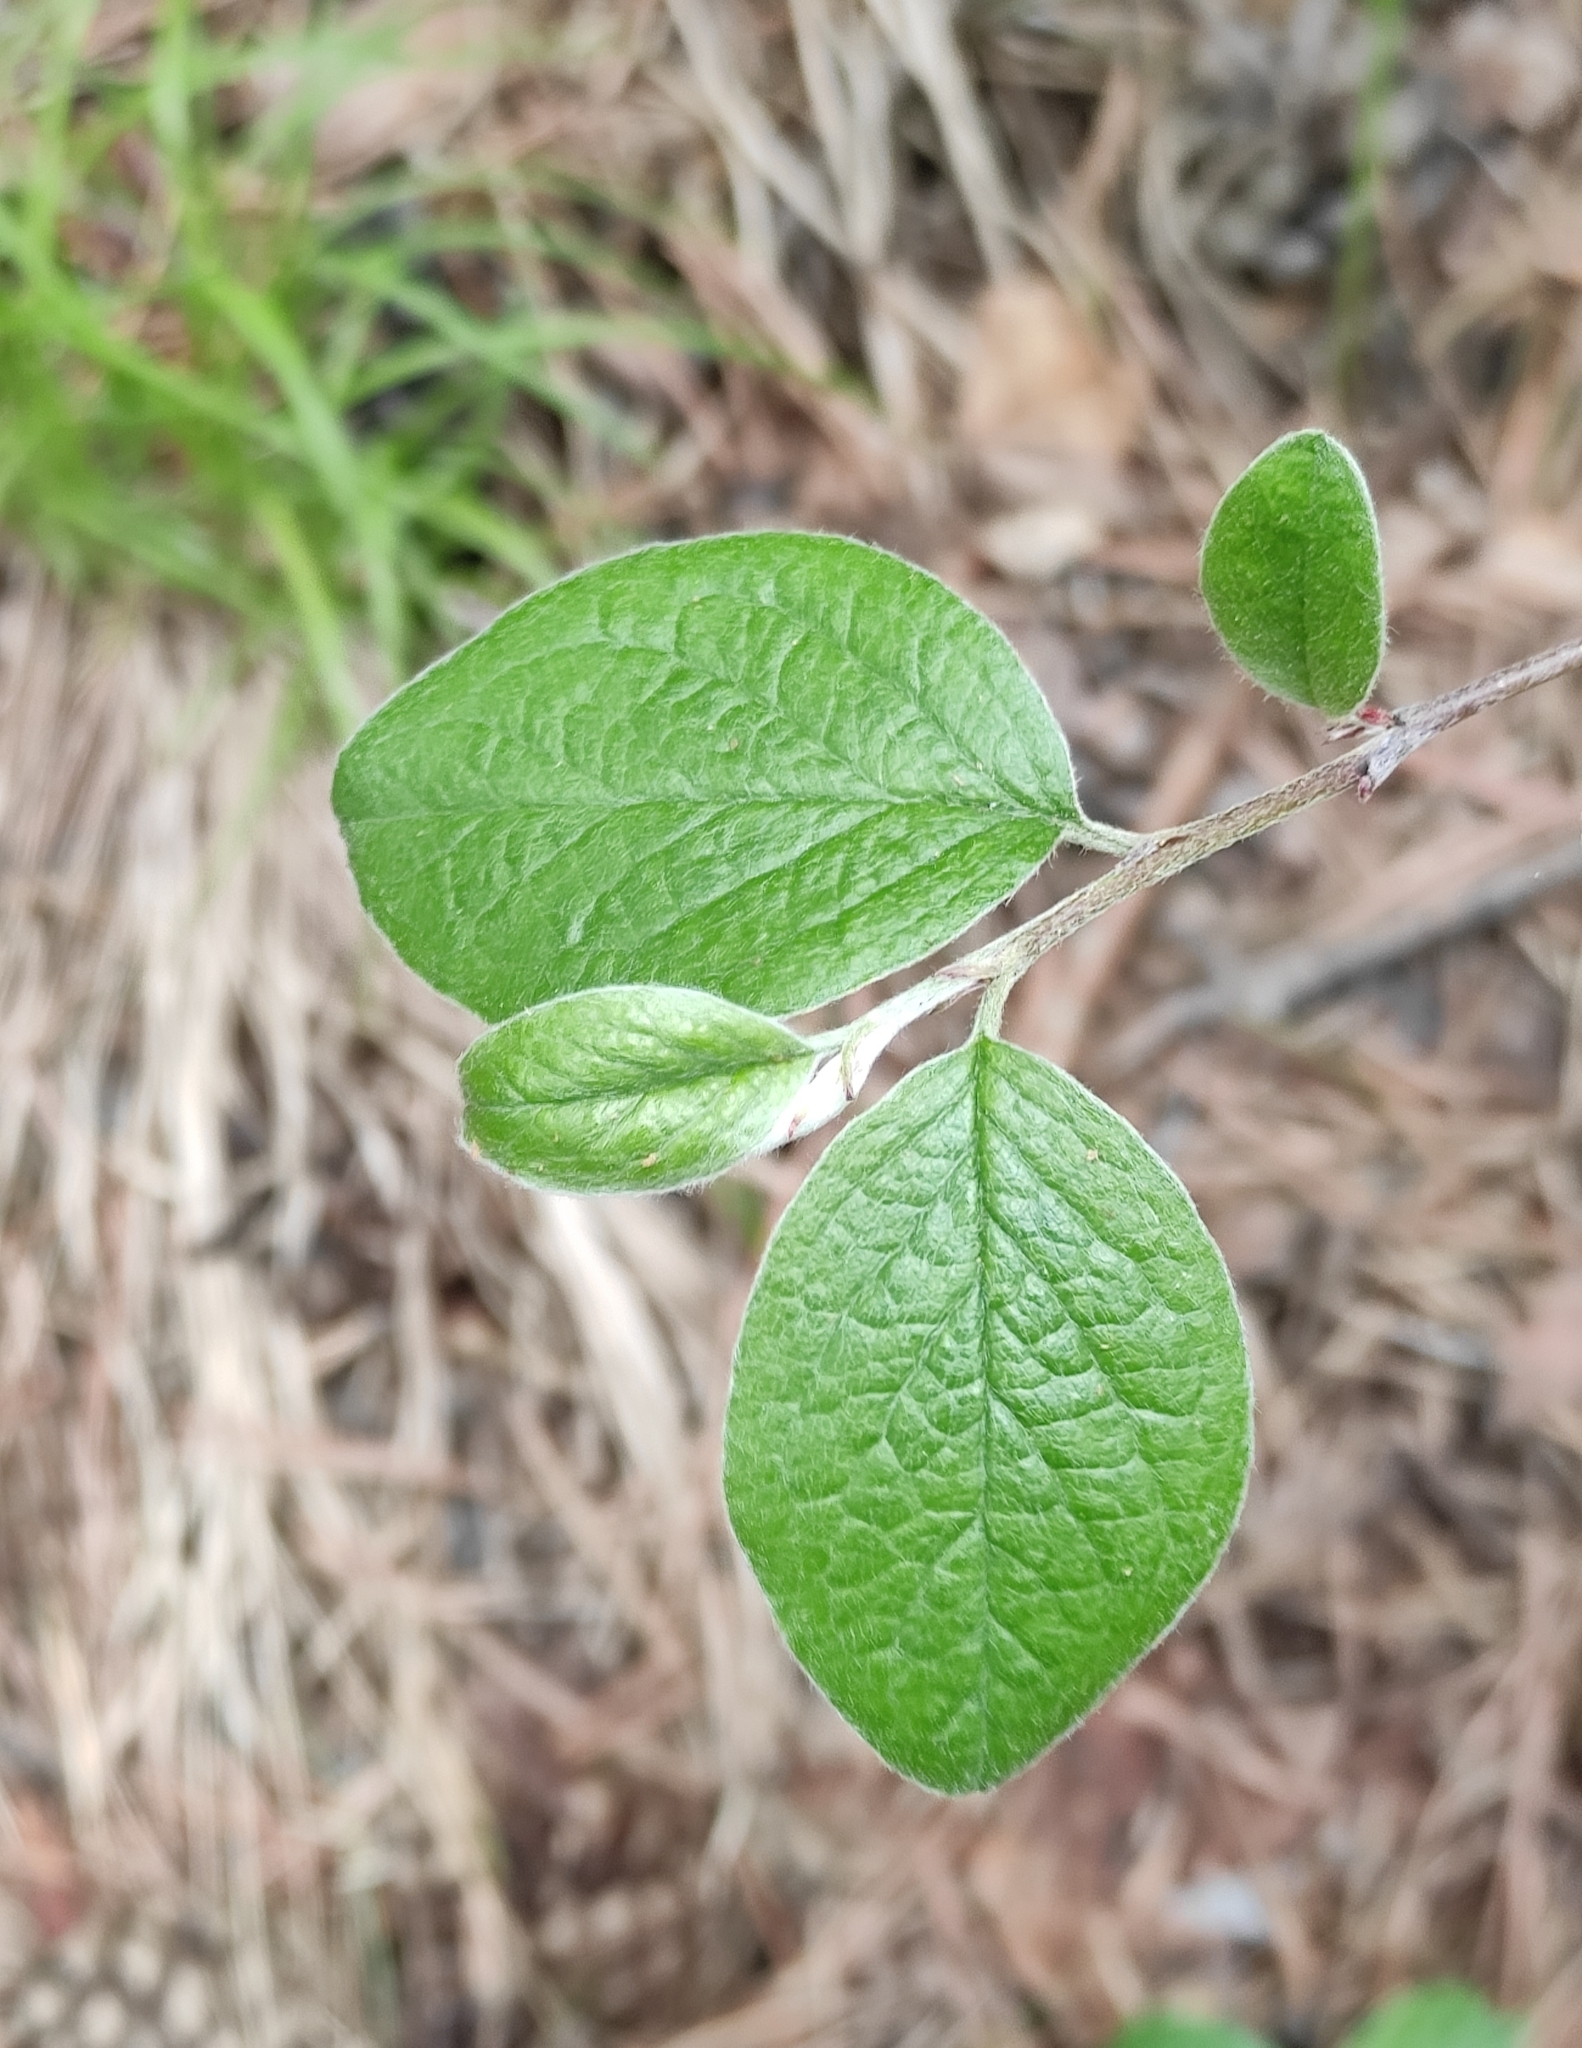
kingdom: Plantae
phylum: Tracheophyta
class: Magnoliopsida
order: Rosales
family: Rosaceae
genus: Cotoneaster
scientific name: Cotoneaster melanocarpus
